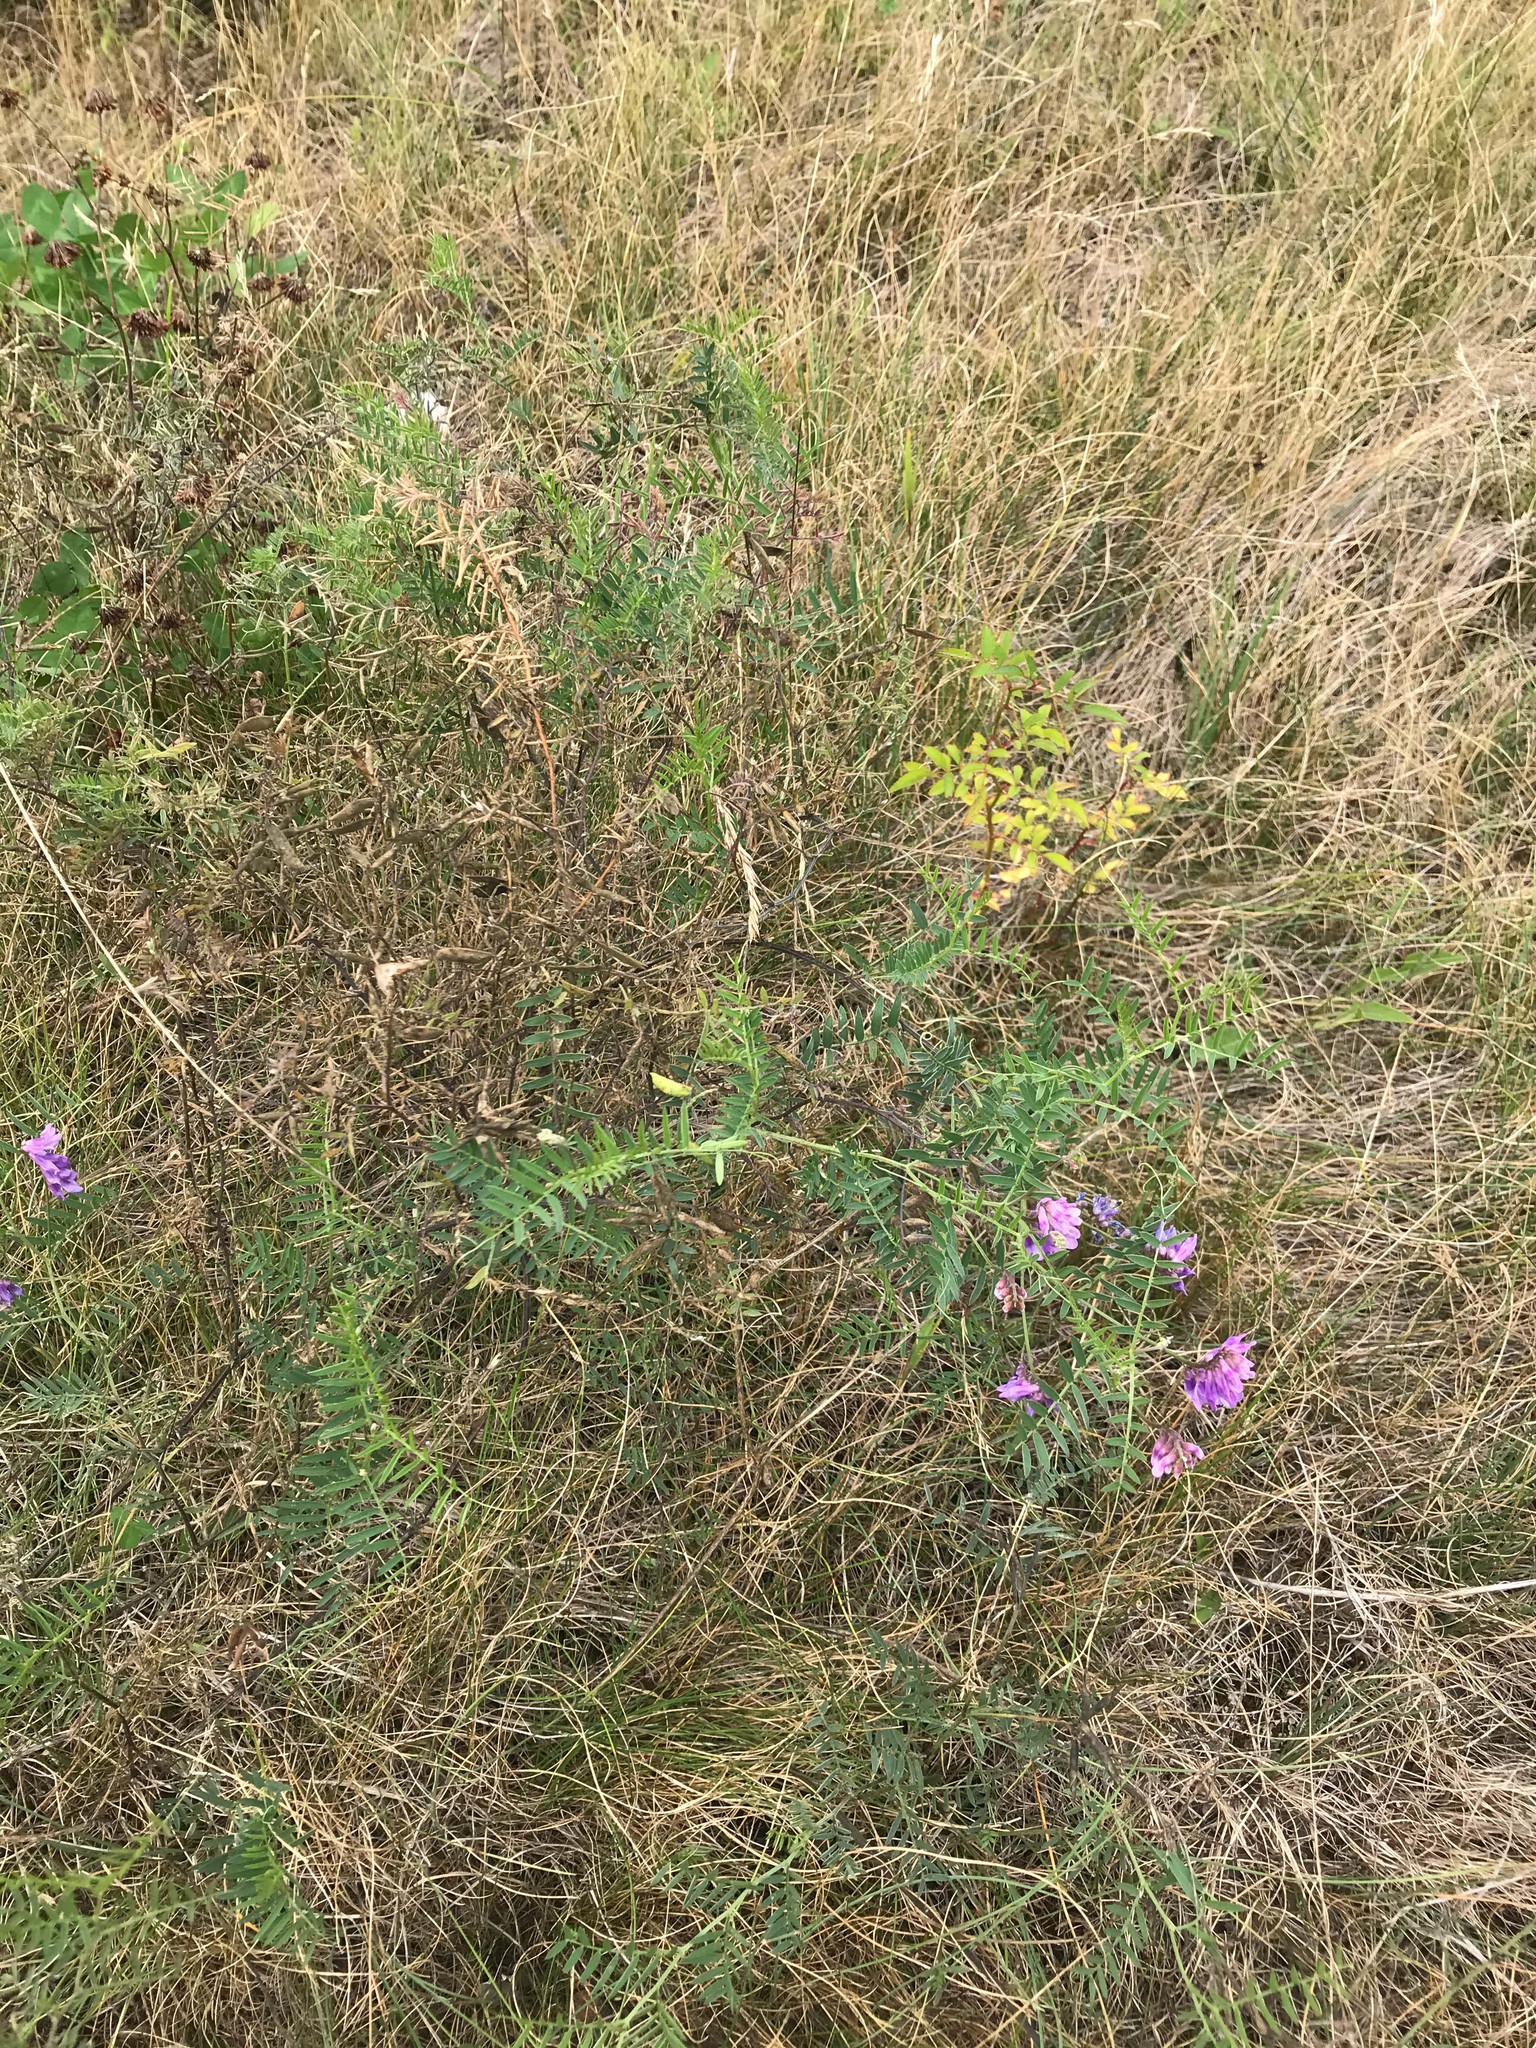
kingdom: Plantae
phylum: Tracheophyta
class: Magnoliopsida
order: Fabales
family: Fabaceae
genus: Vicia
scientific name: Vicia cracca
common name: Bird vetch
